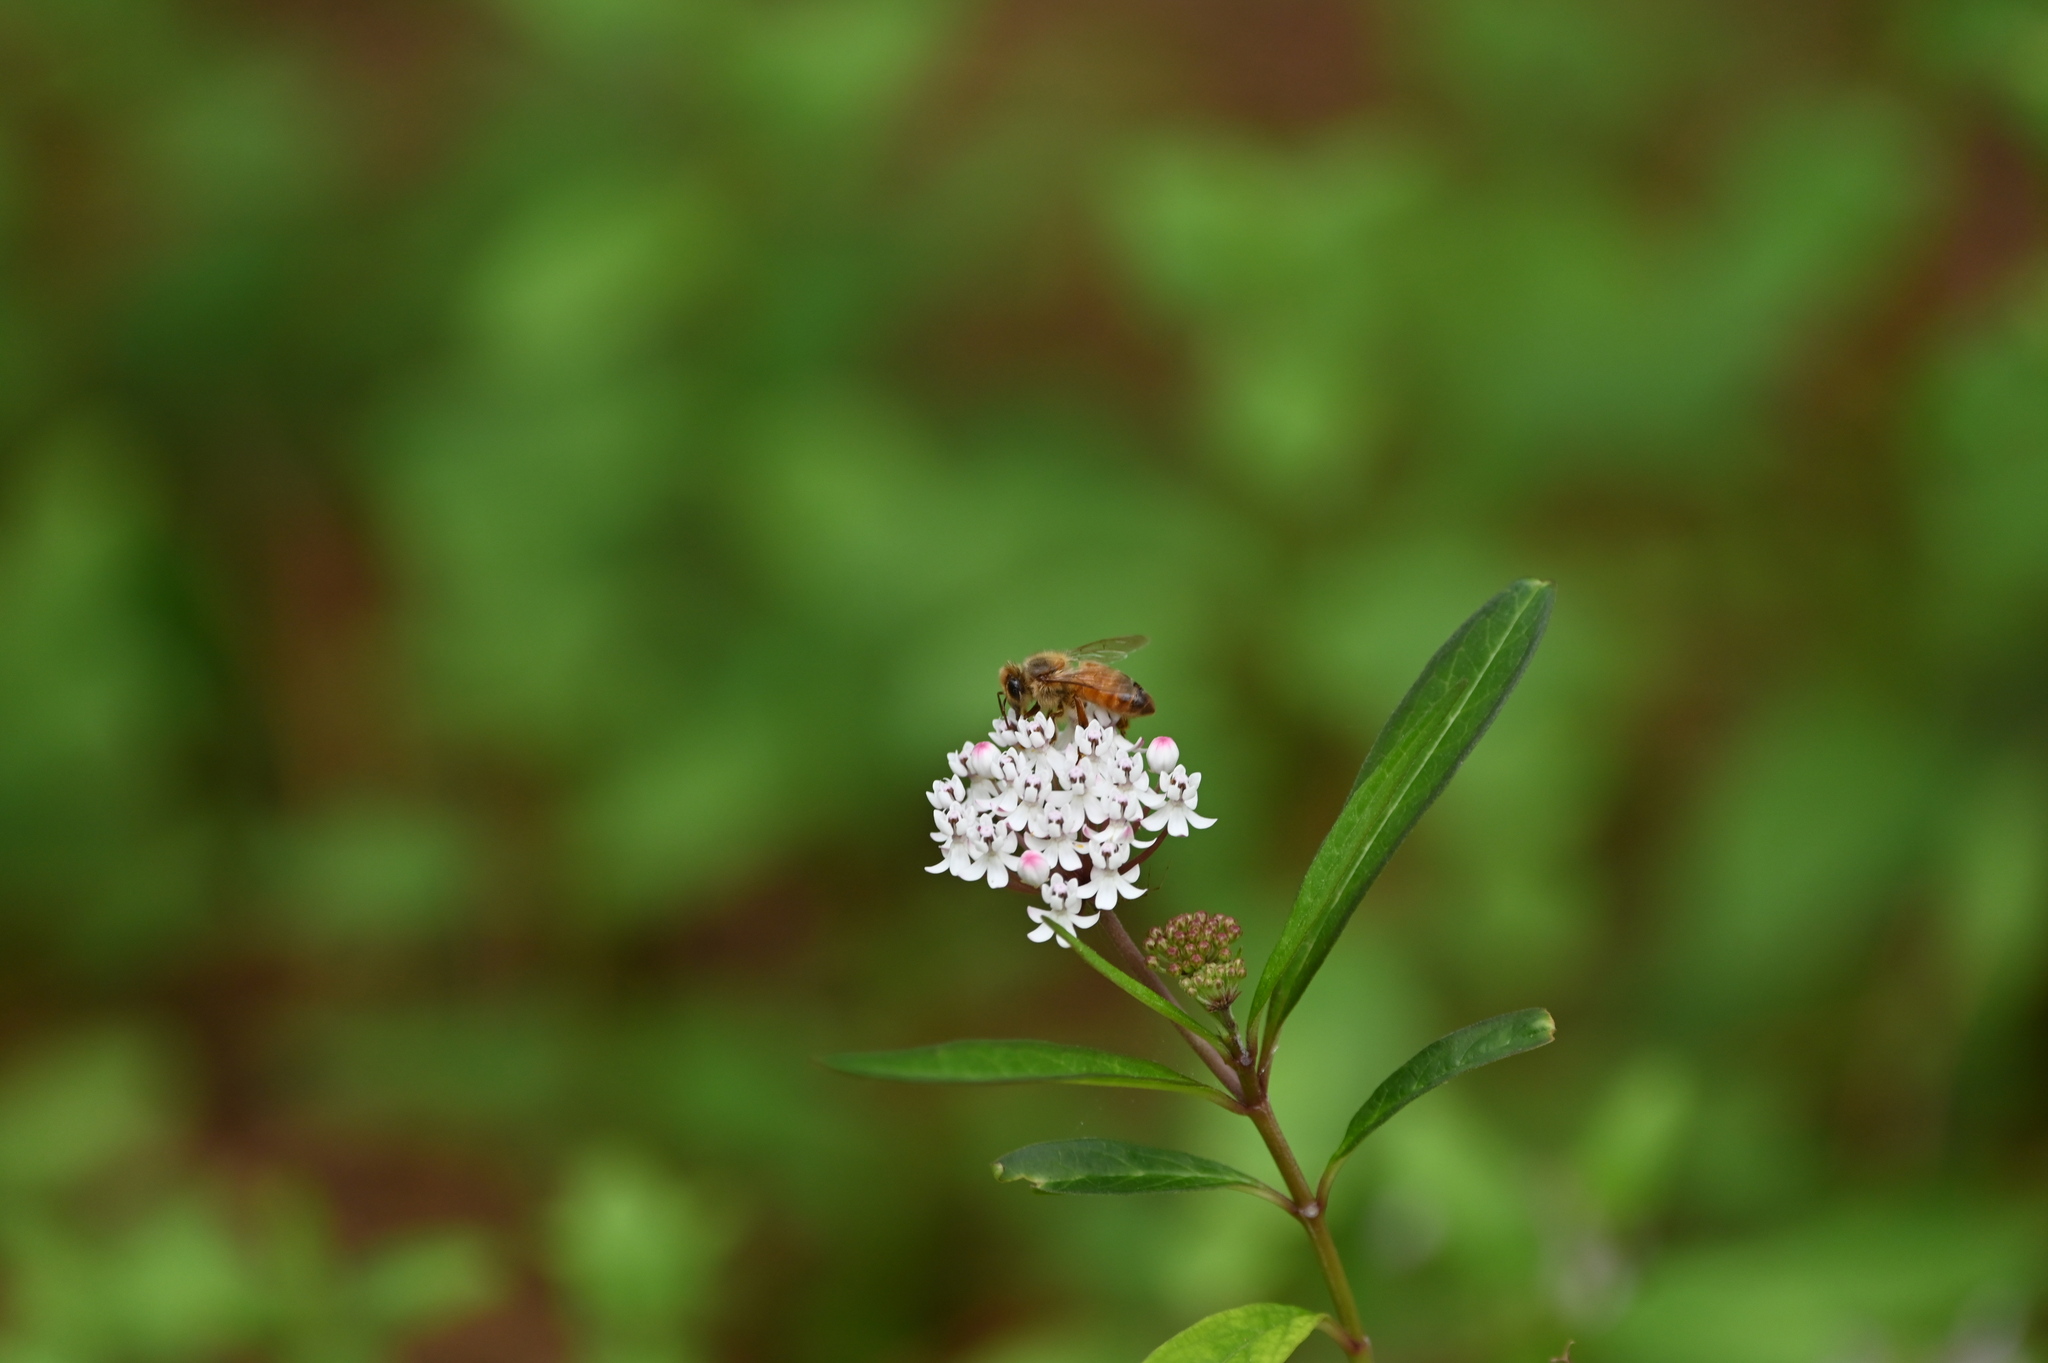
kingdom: Animalia
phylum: Arthropoda
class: Insecta
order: Hymenoptera
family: Apidae
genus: Apis
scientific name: Apis mellifera
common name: Honey bee
